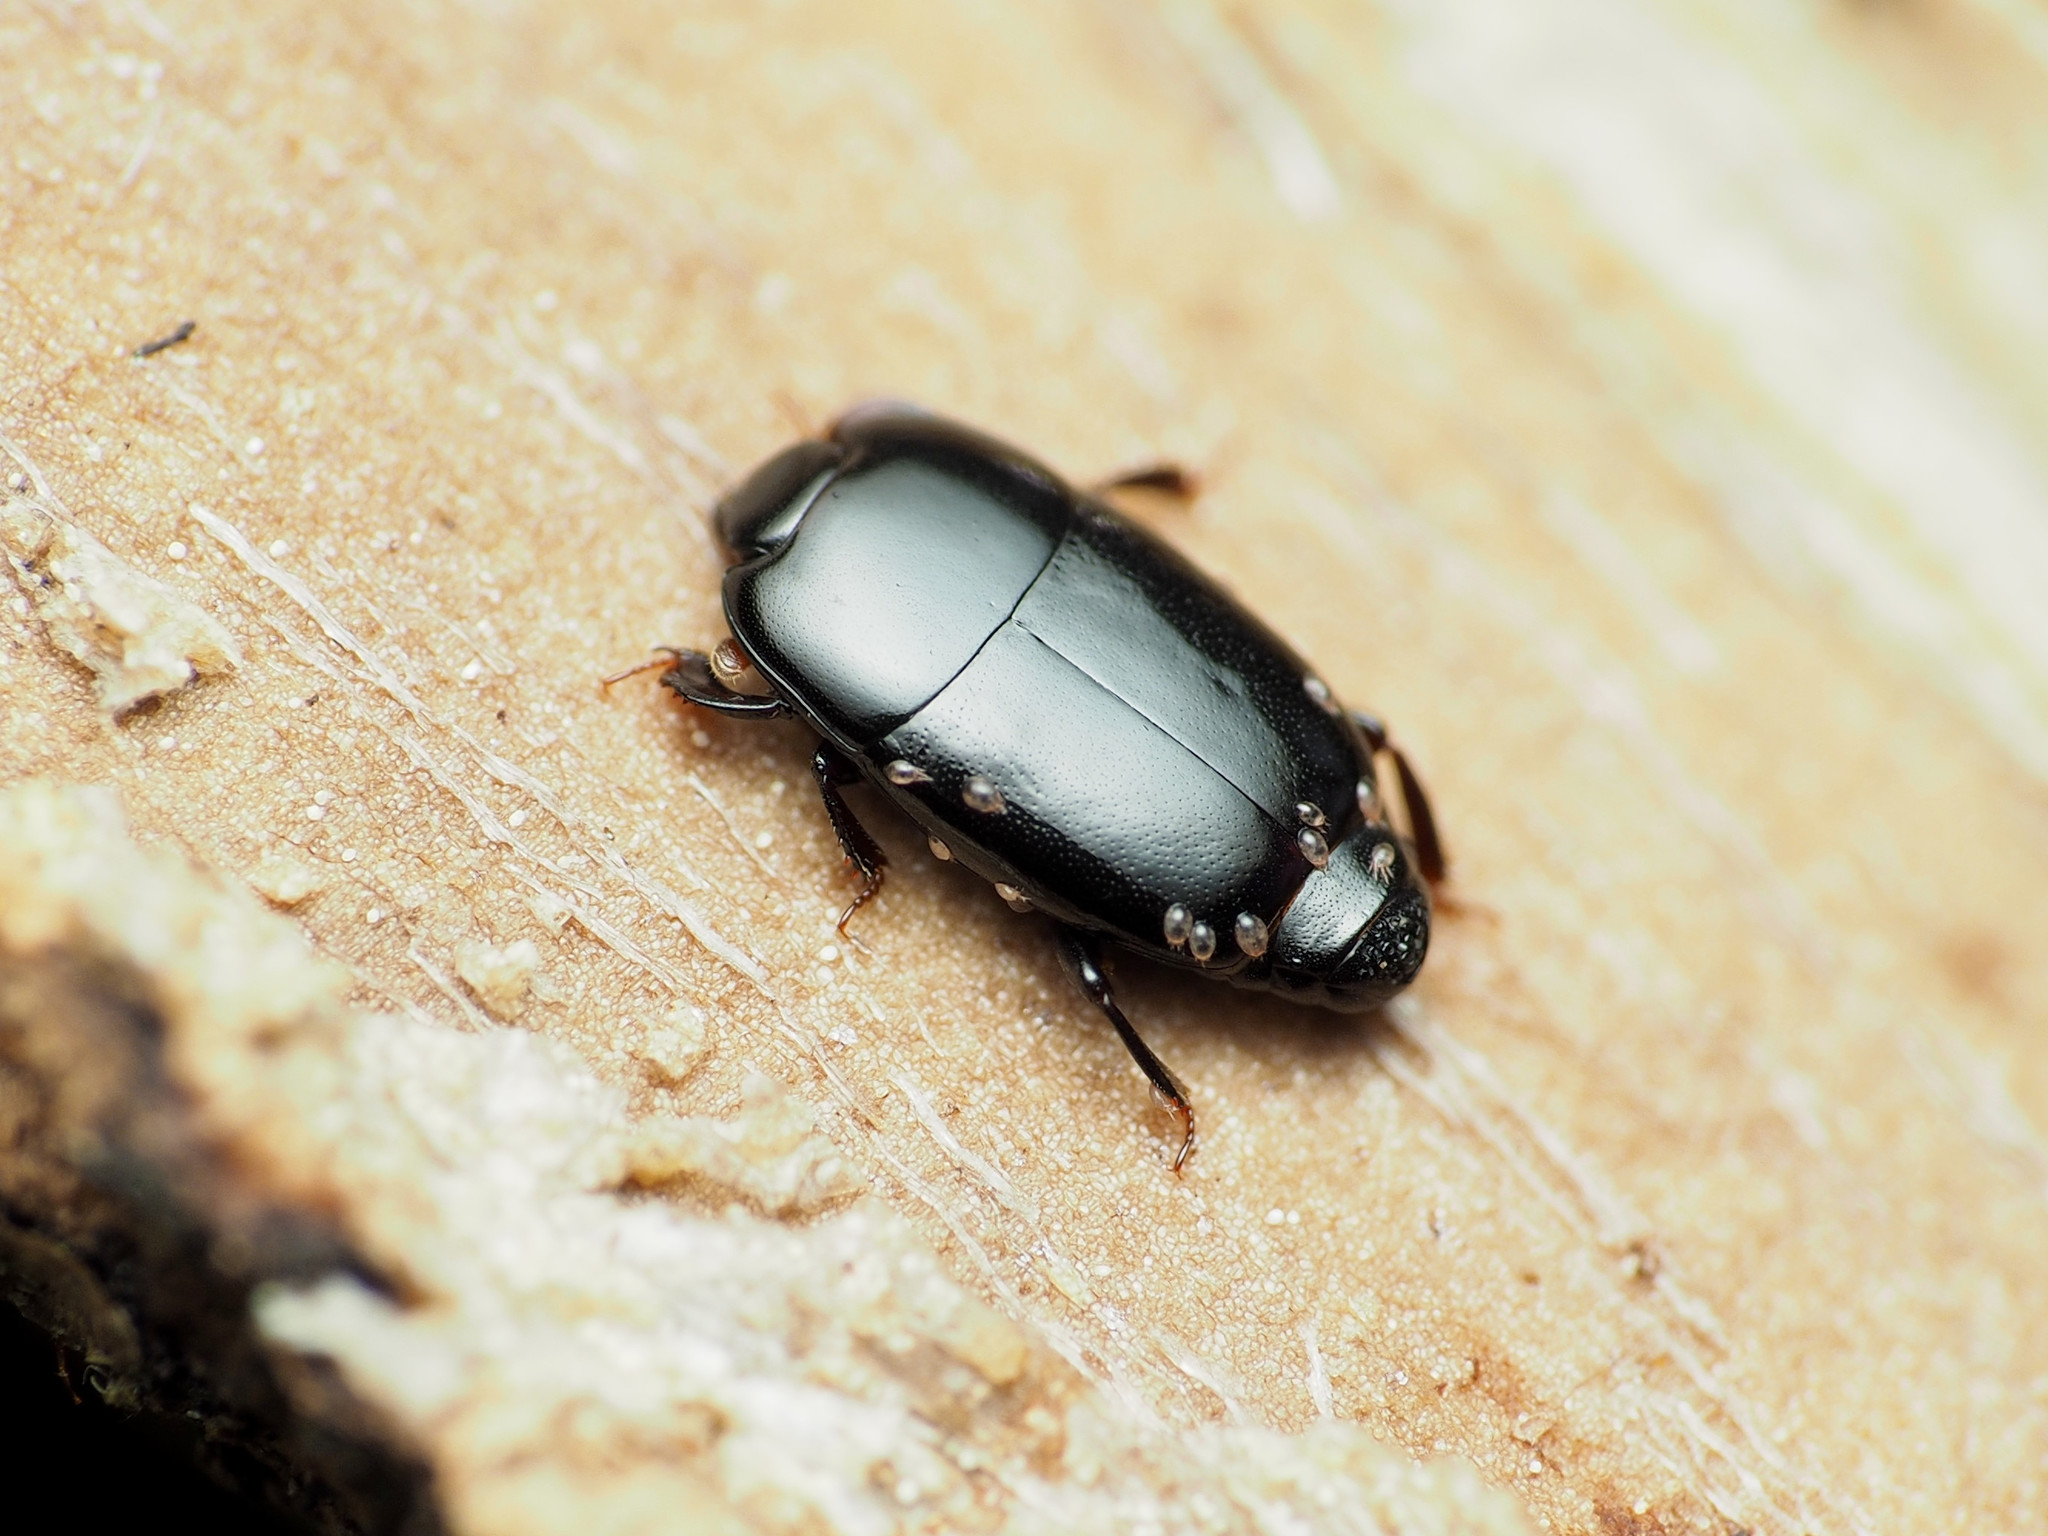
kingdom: Animalia
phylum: Arthropoda
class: Insecta
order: Coleoptera
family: Histeridae
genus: Platylomalus
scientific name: Platylomalus aequalis
